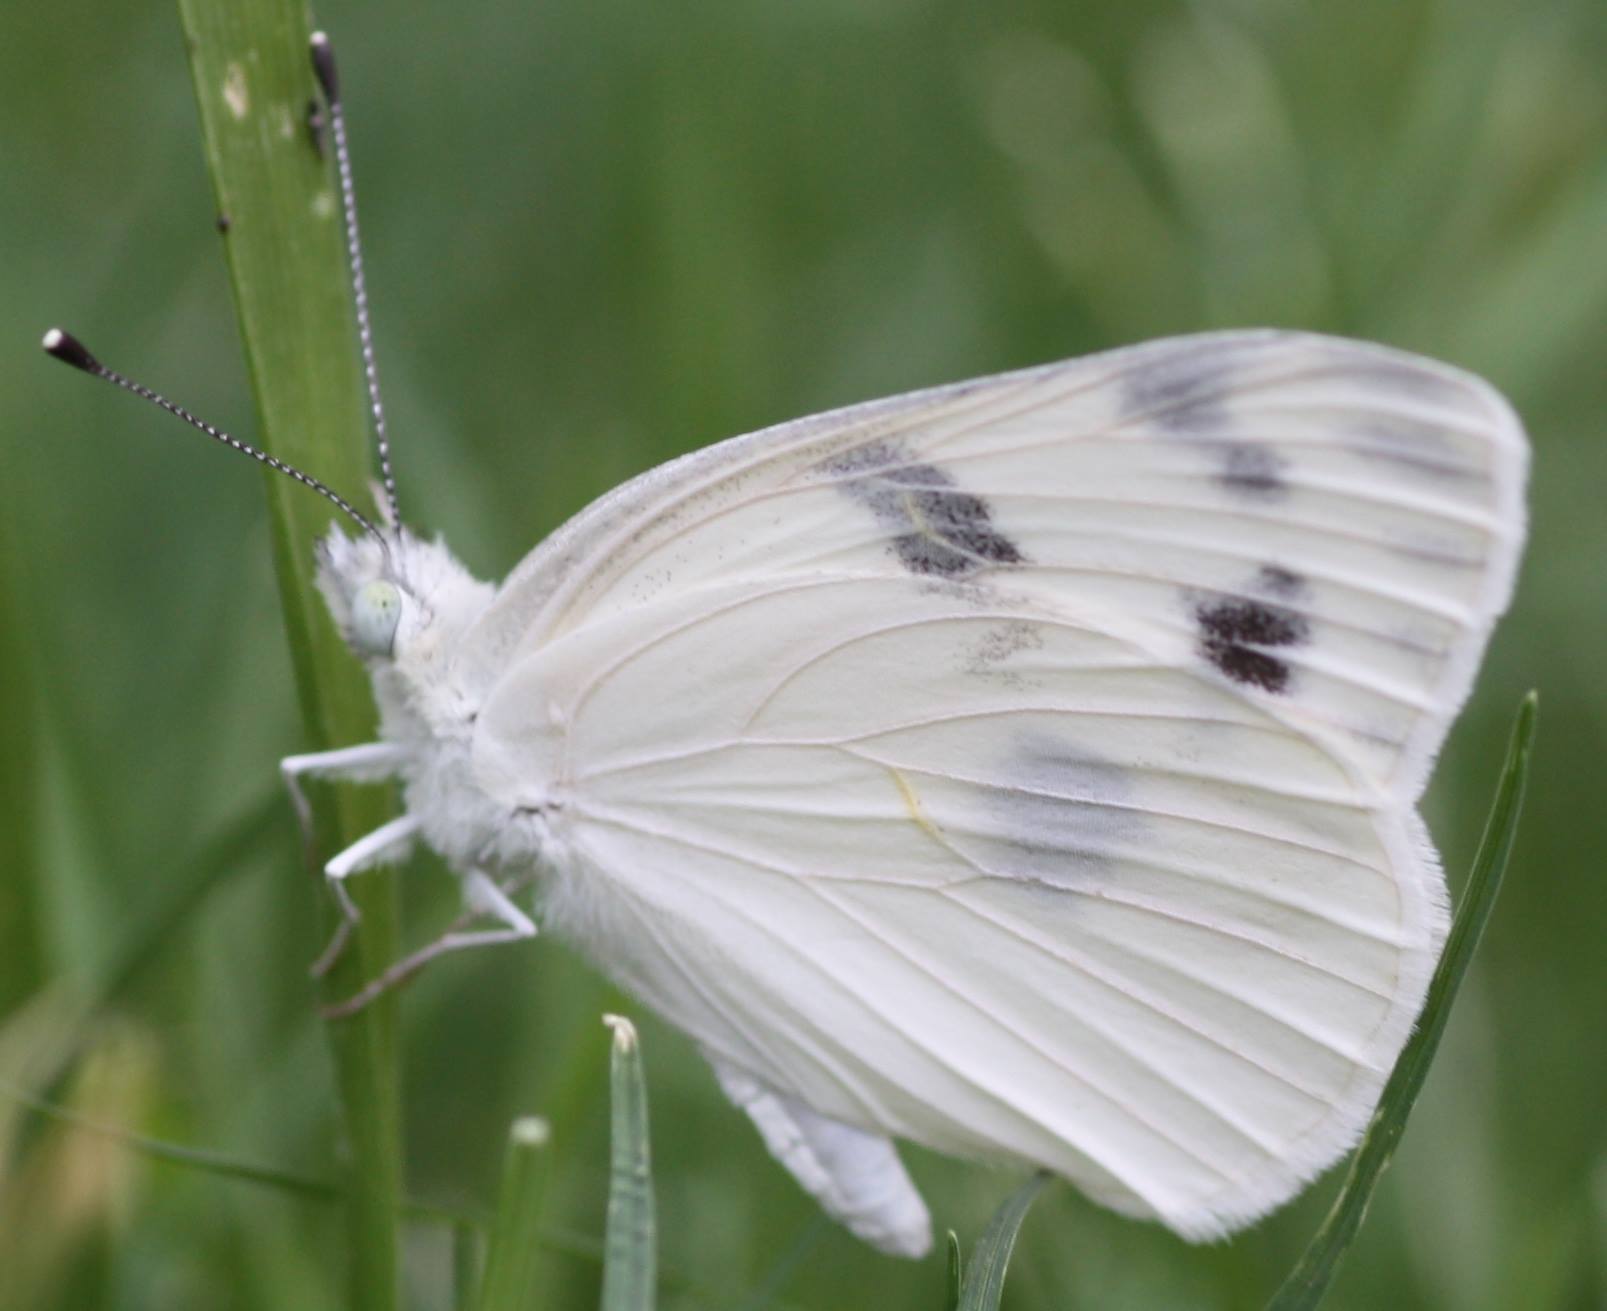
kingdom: Animalia
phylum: Arthropoda
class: Insecta
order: Lepidoptera
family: Pieridae
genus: Pontia
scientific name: Pontia protodice
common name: Checkered white
